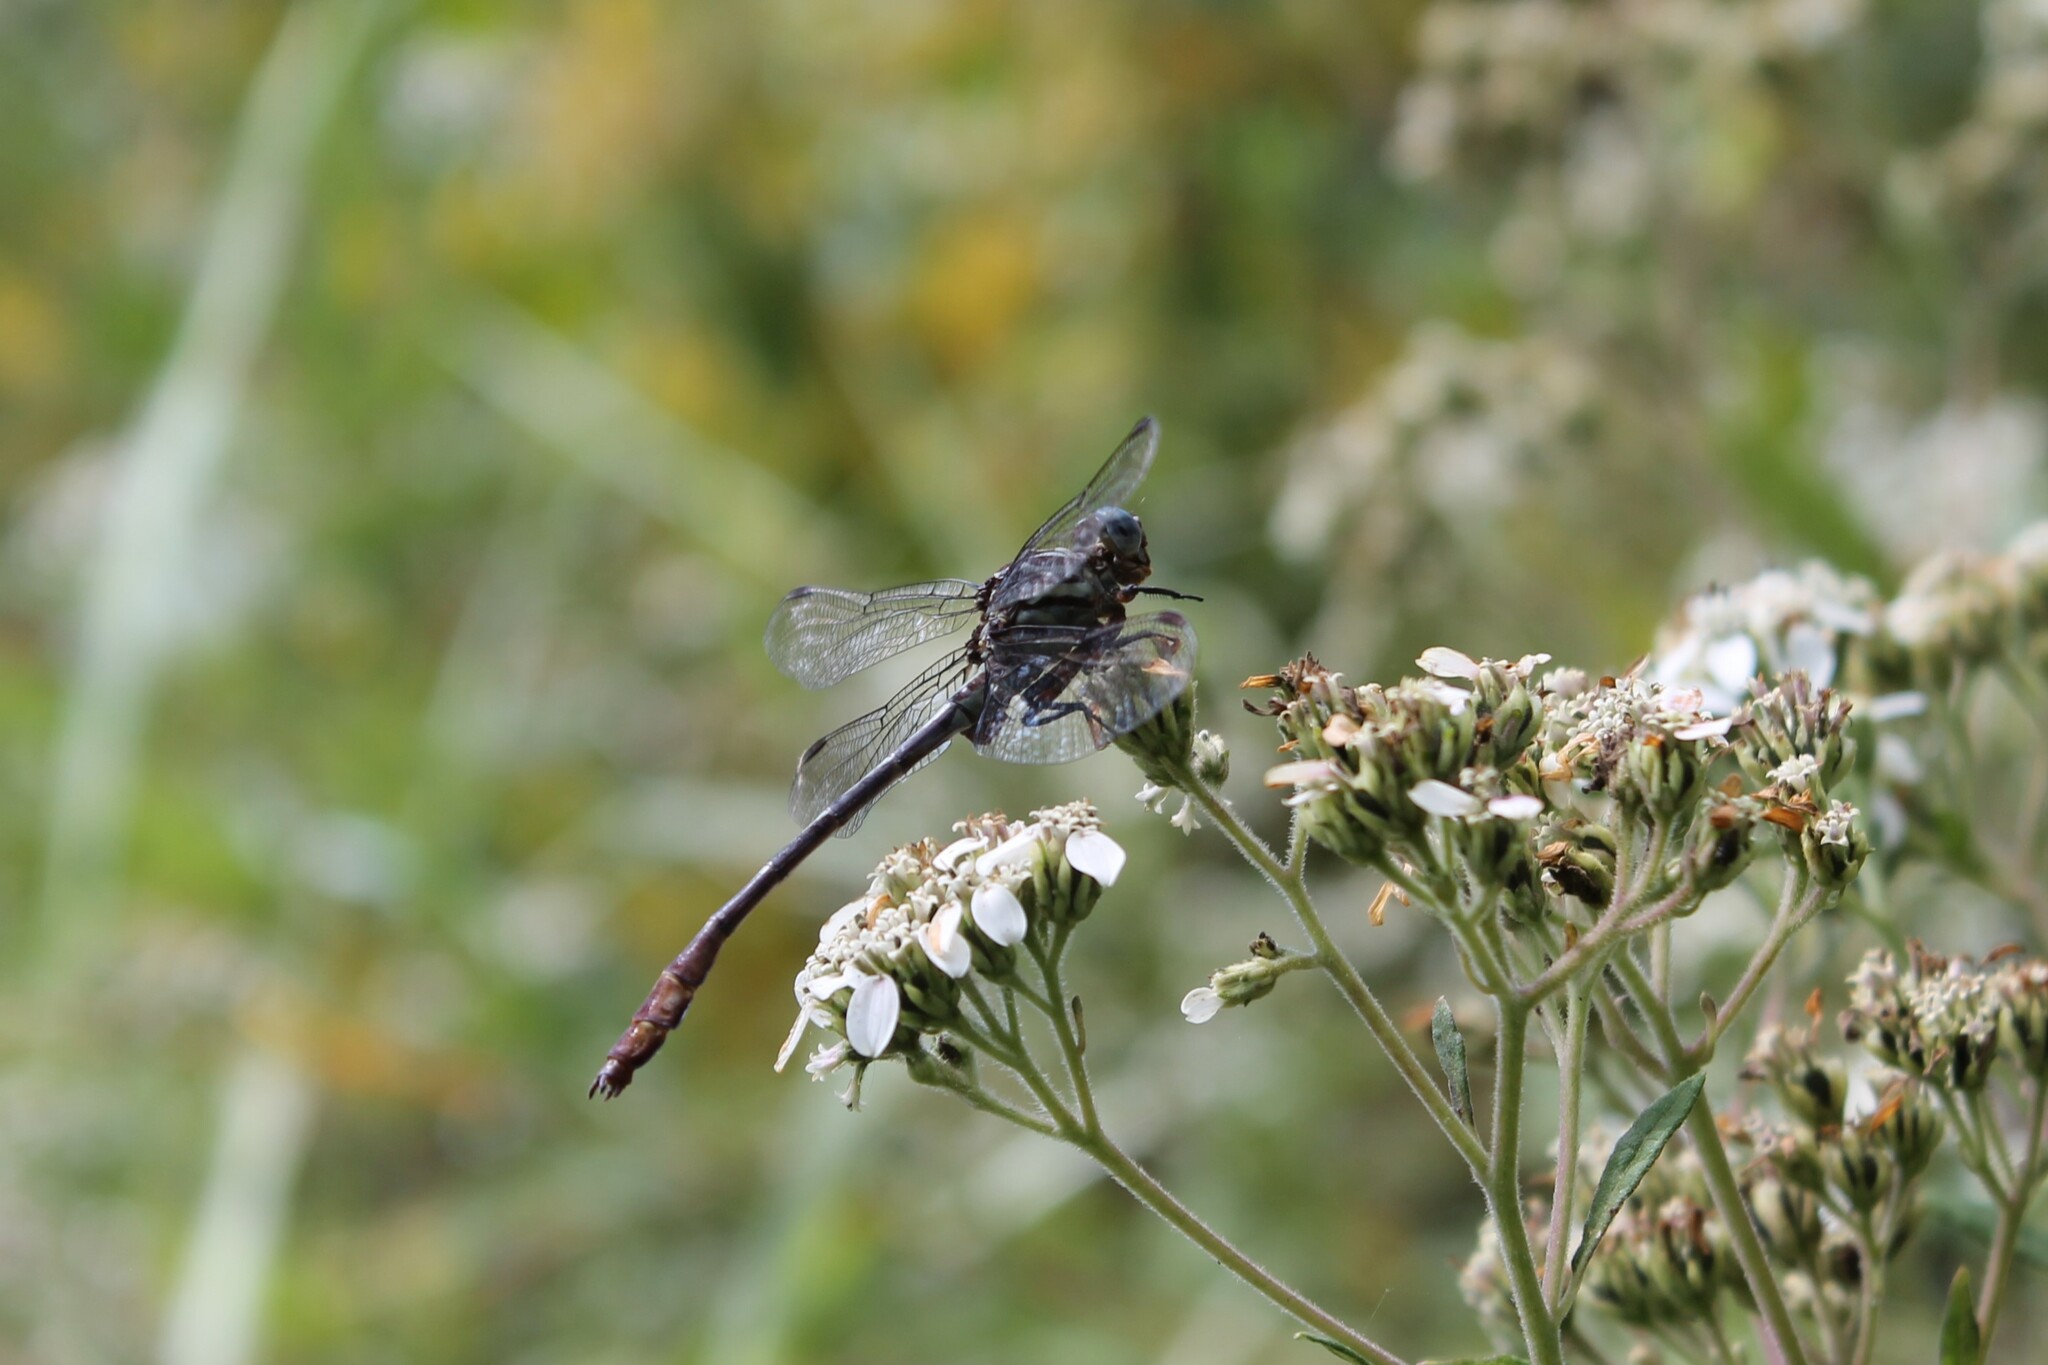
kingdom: Animalia
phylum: Arthropoda
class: Insecta
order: Odonata
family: Gomphidae
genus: Stylurus
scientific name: Stylurus plagiatus
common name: Russet-tipped clubtail
